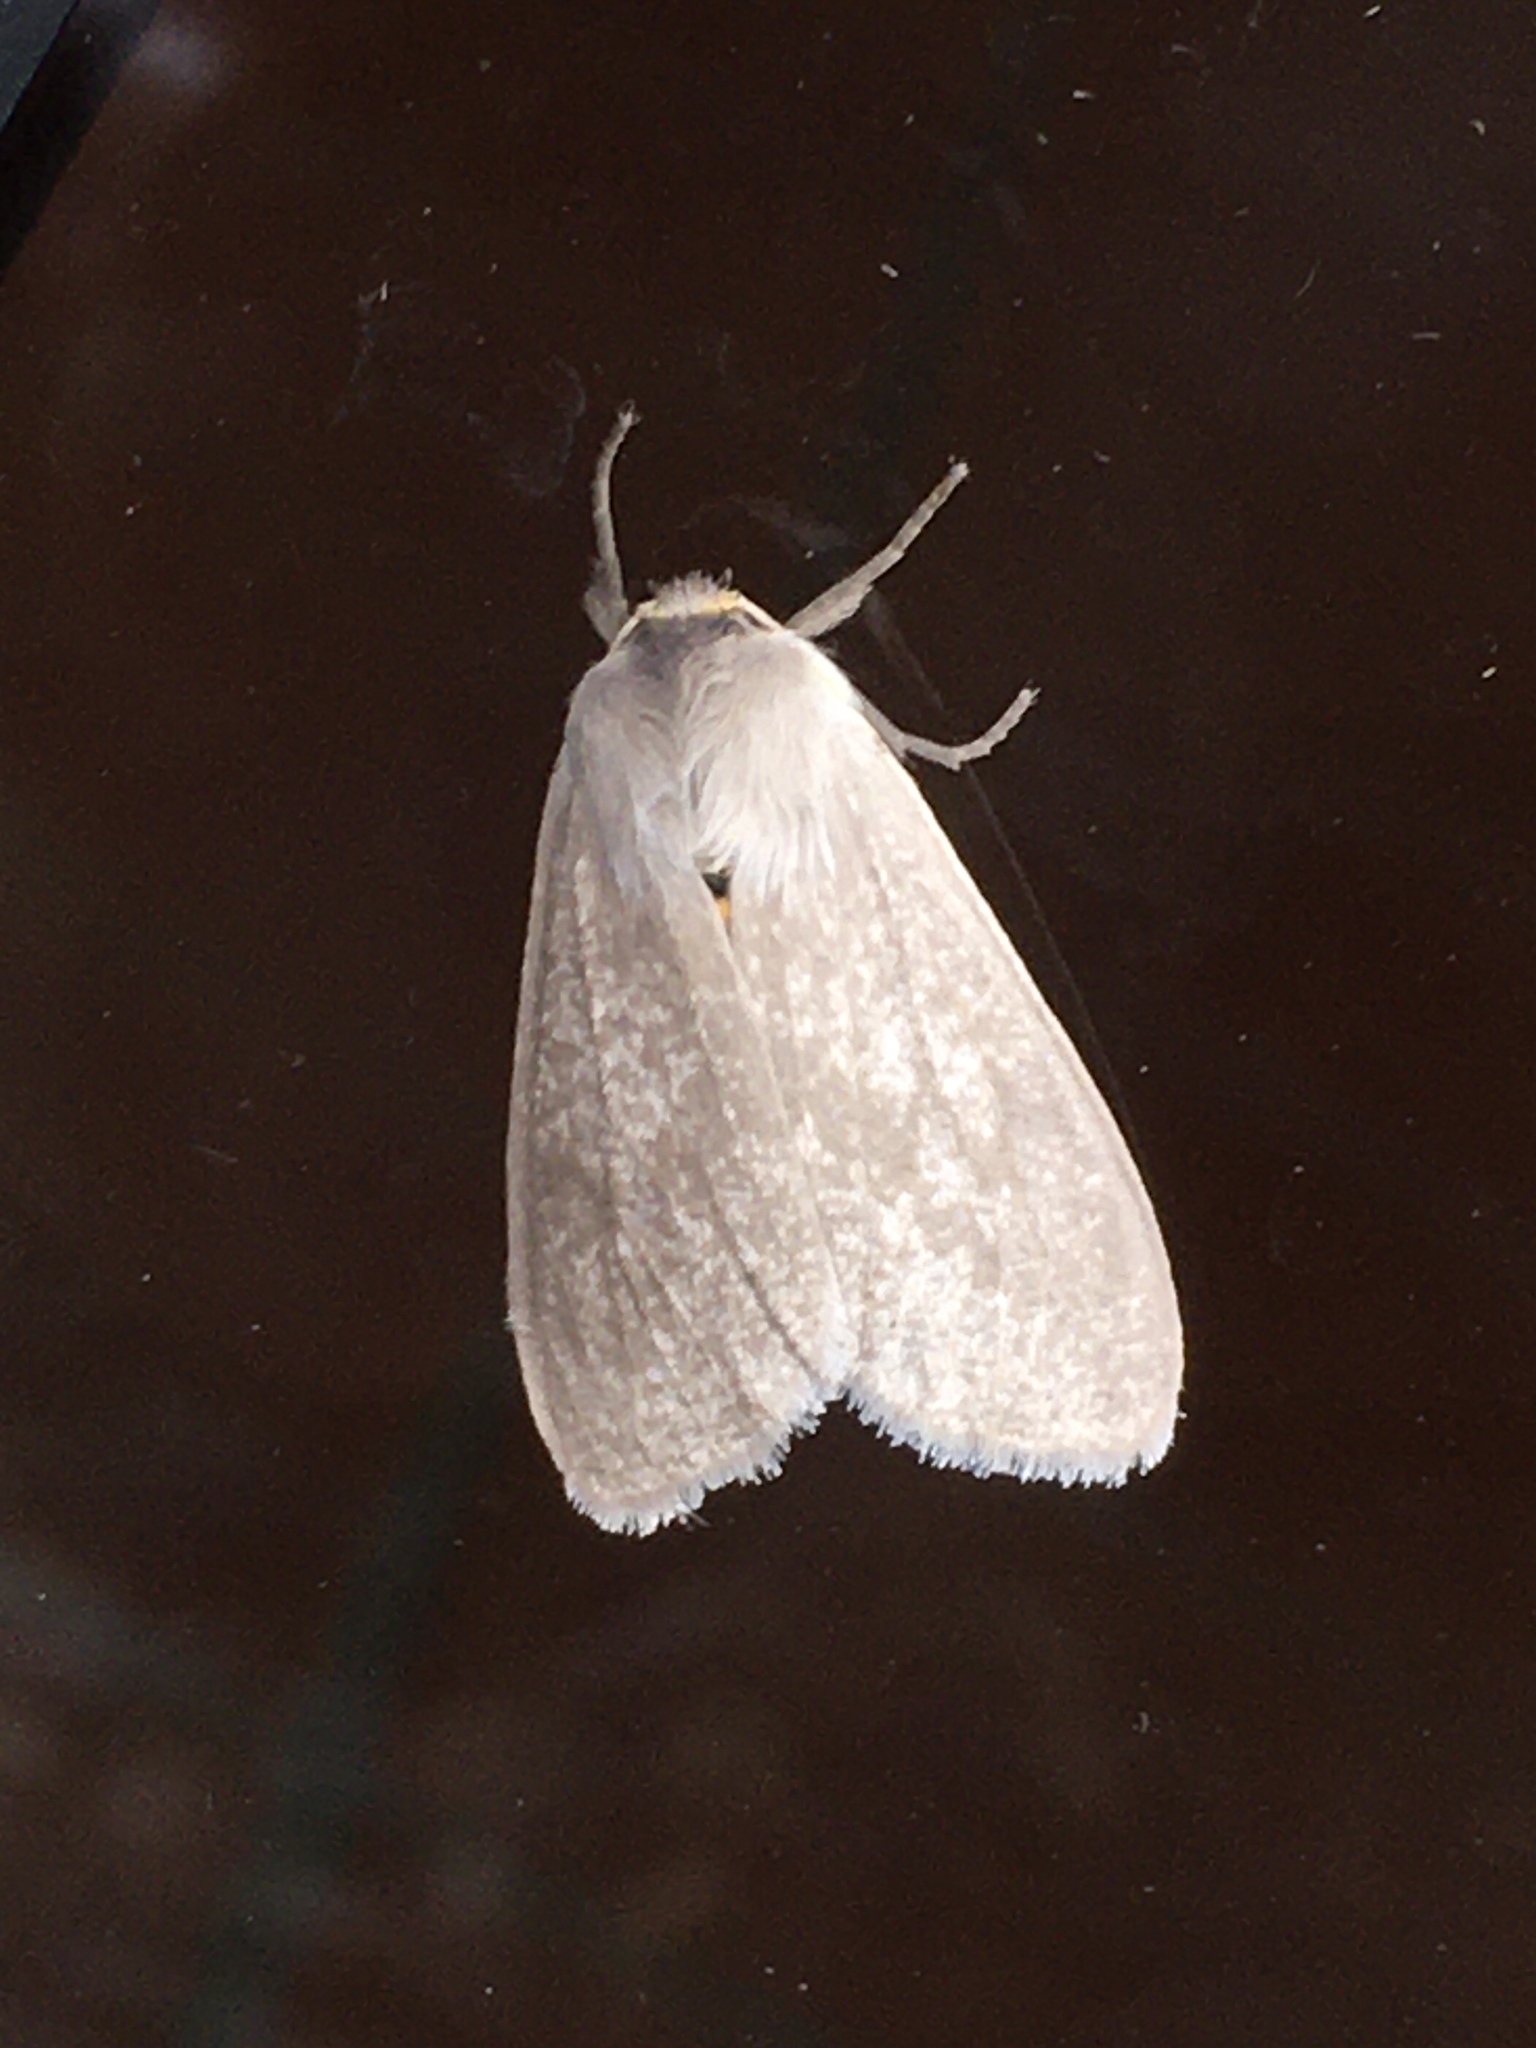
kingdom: Animalia
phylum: Arthropoda
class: Insecta
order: Lepidoptera
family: Erebidae
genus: Euchaetes
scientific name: Euchaetes egle
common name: Milkweed tussock moth
